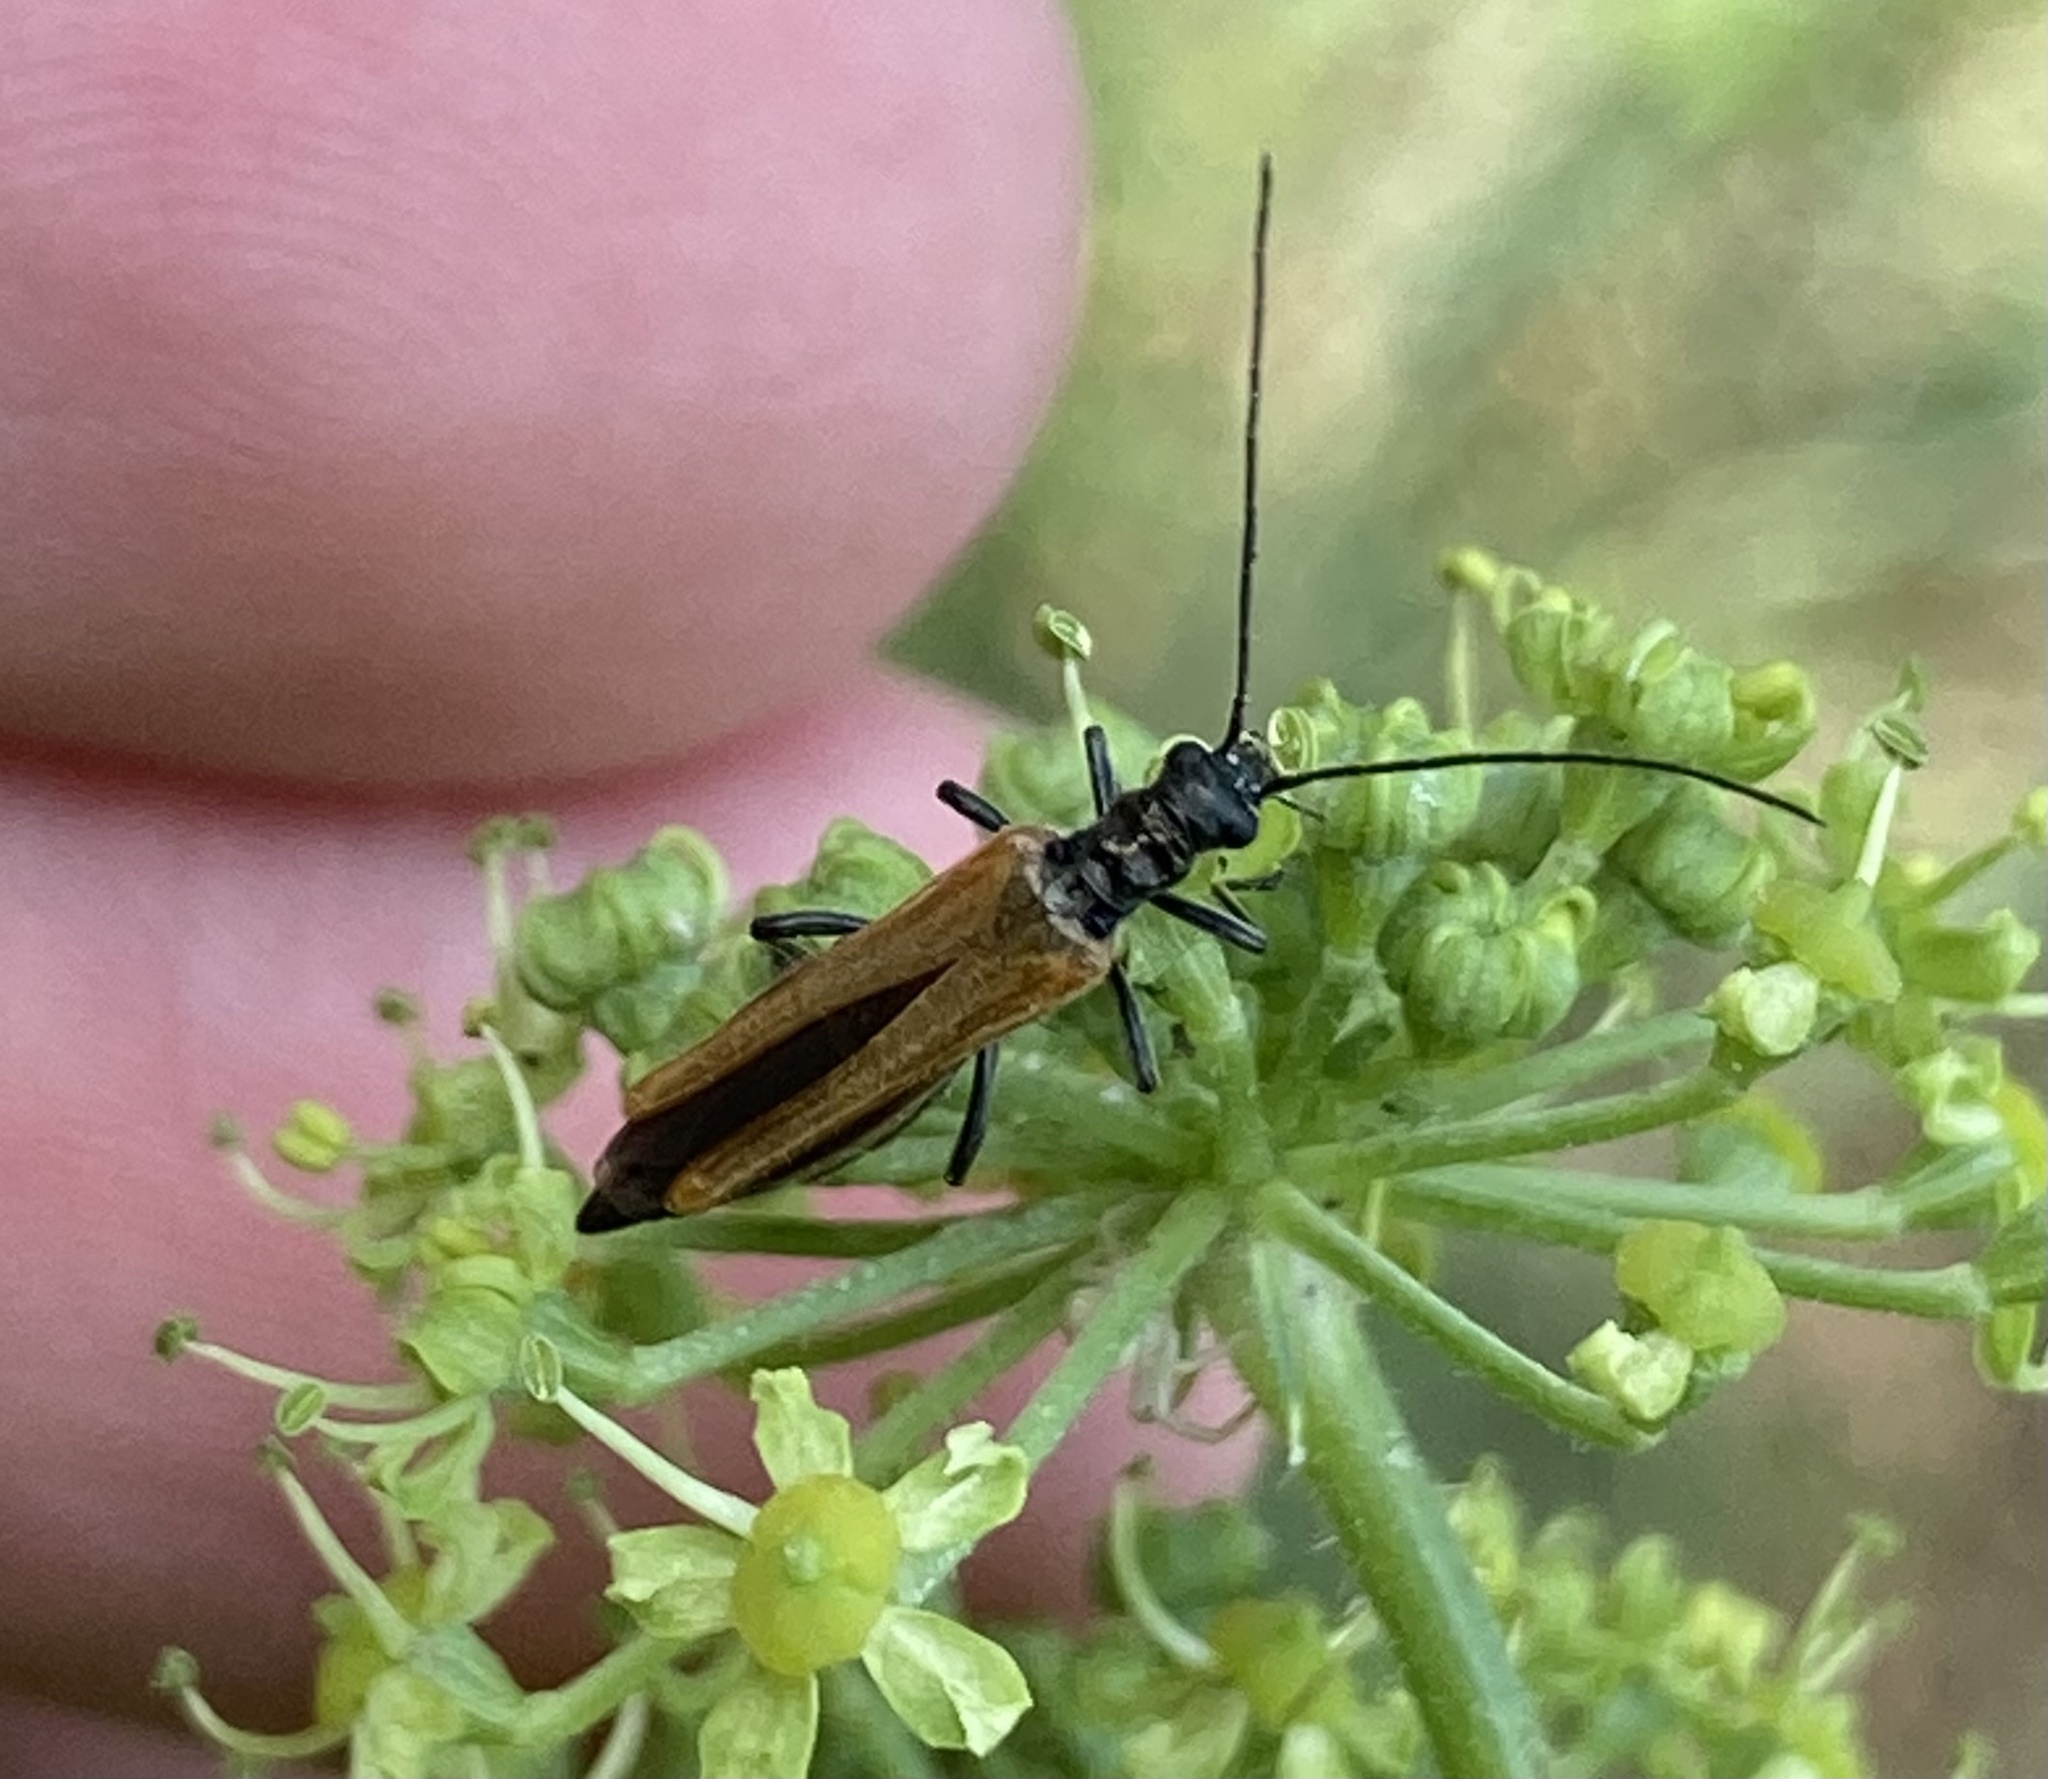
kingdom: Animalia
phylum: Arthropoda
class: Insecta
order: Coleoptera
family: Oedemeridae
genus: Oedemera
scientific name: Oedemera femorata
